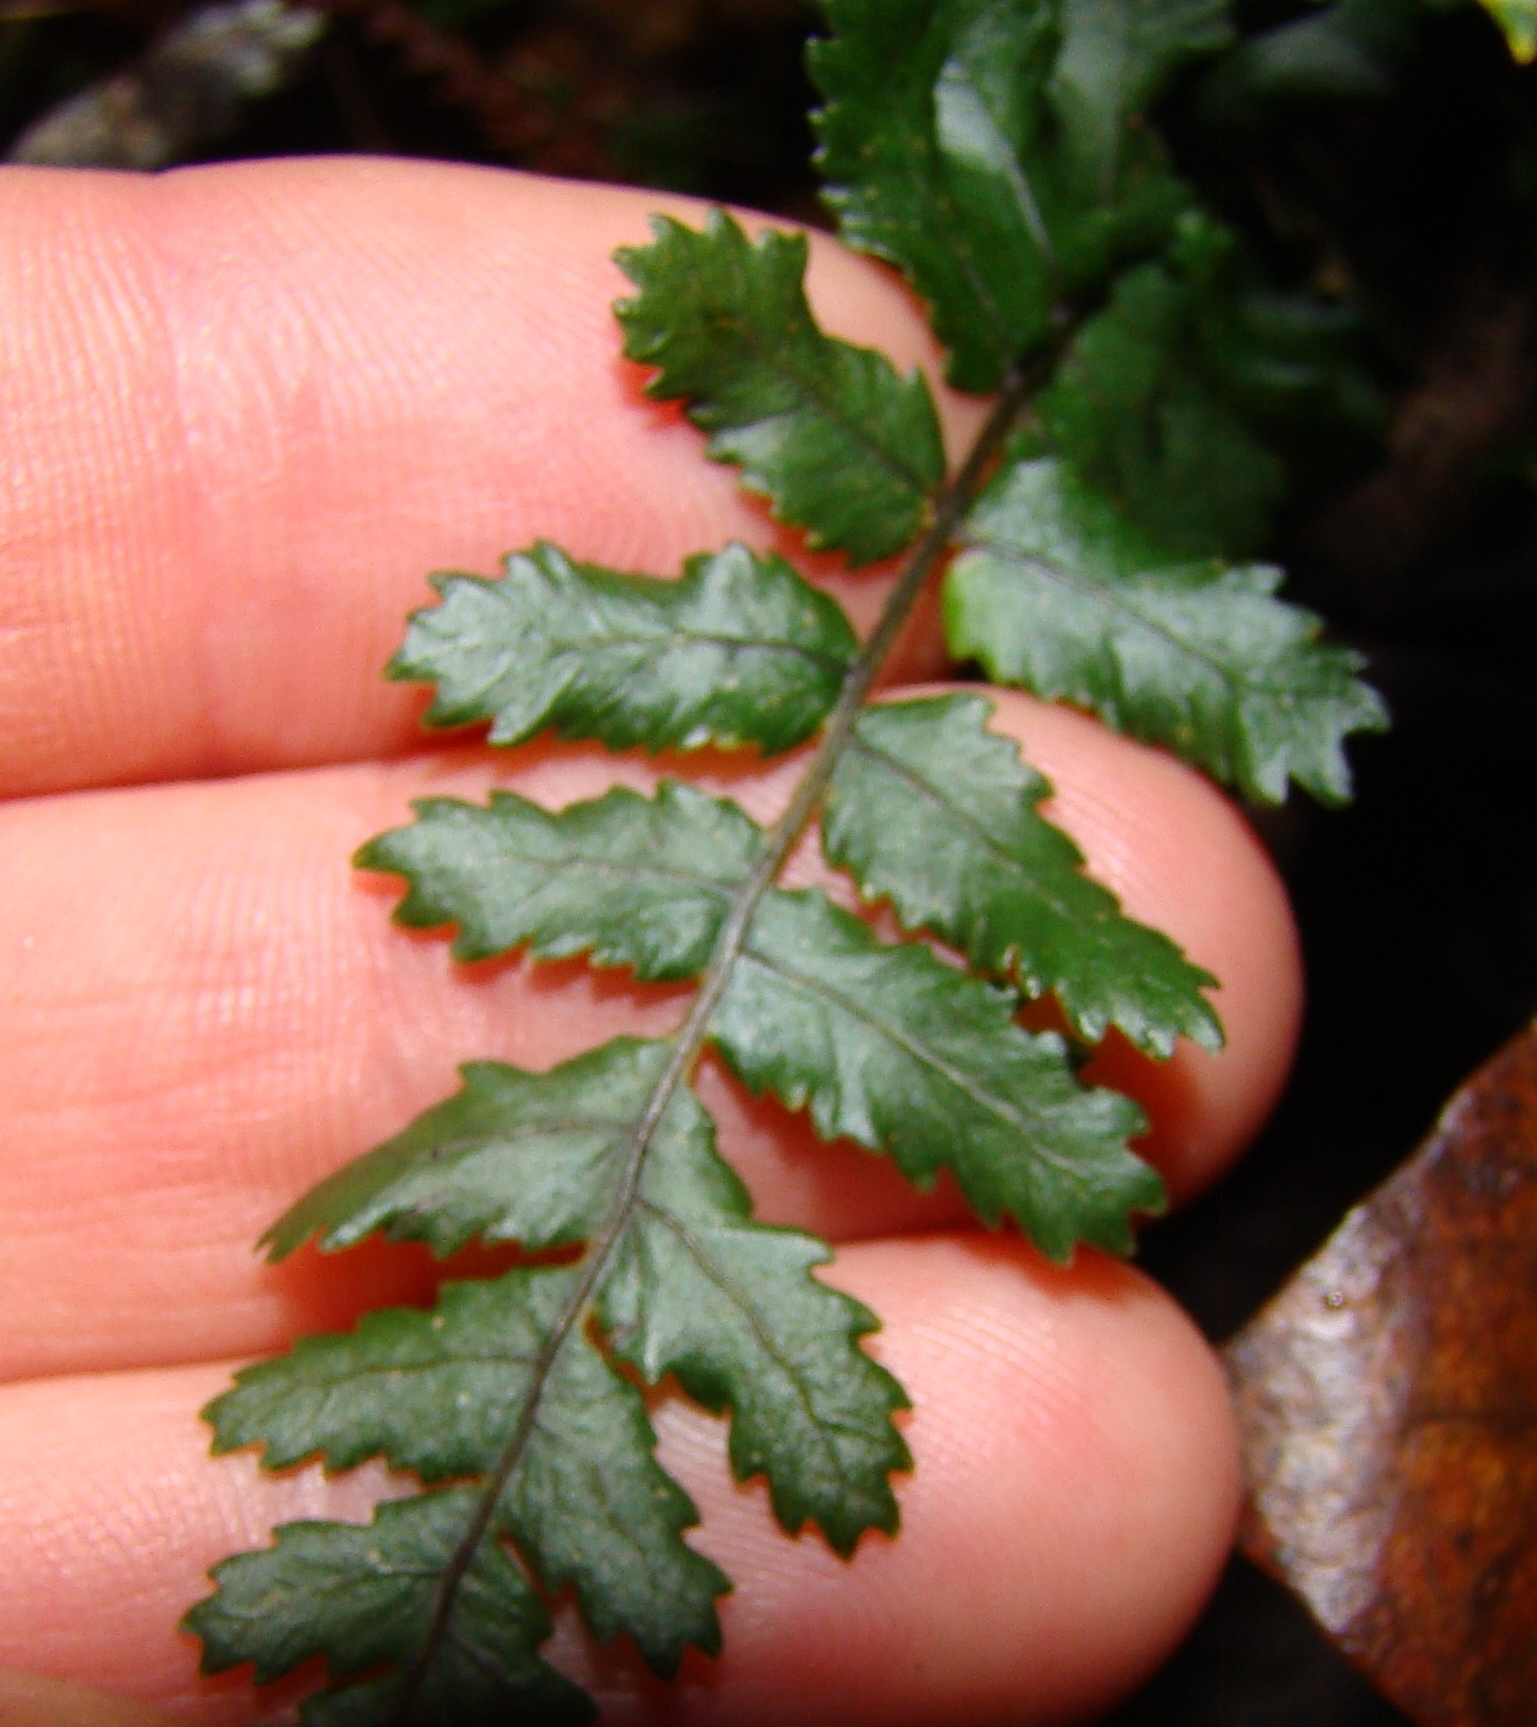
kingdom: Plantae
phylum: Tracheophyta
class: Polypodiopsida
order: Polypodiales
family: Blechnaceae
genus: Icarus
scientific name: Icarus filiformis
